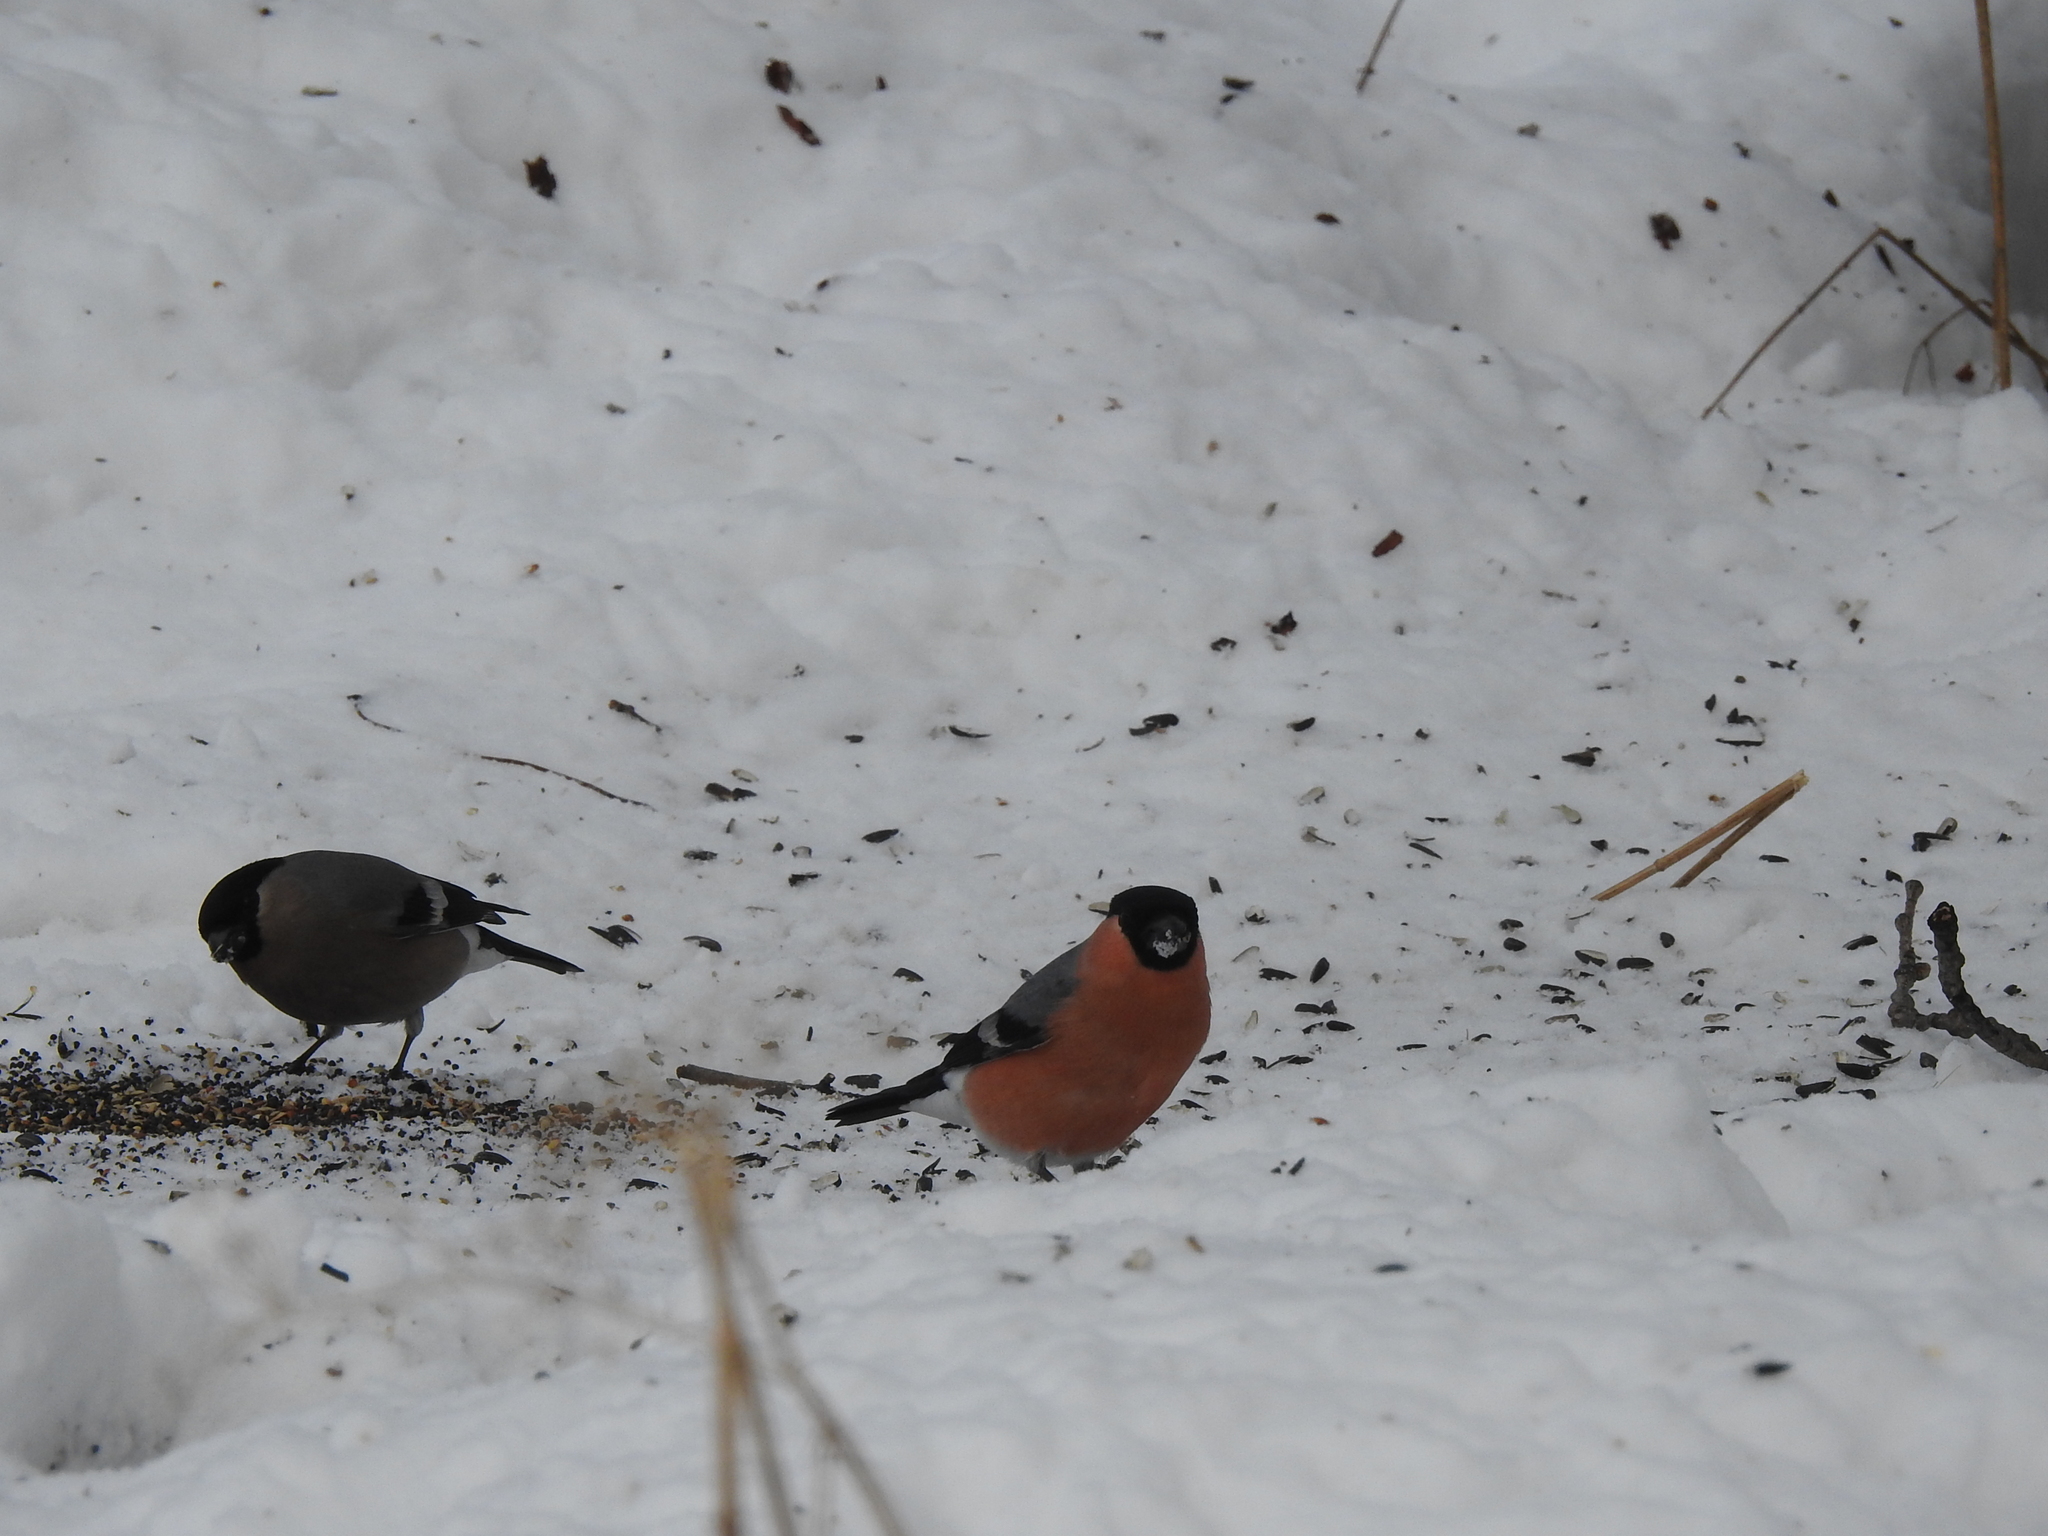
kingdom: Animalia
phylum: Chordata
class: Aves
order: Passeriformes
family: Fringillidae
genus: Pyrrhula
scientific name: Pyrrhula pyrrhula
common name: Eurasian bullfinch
